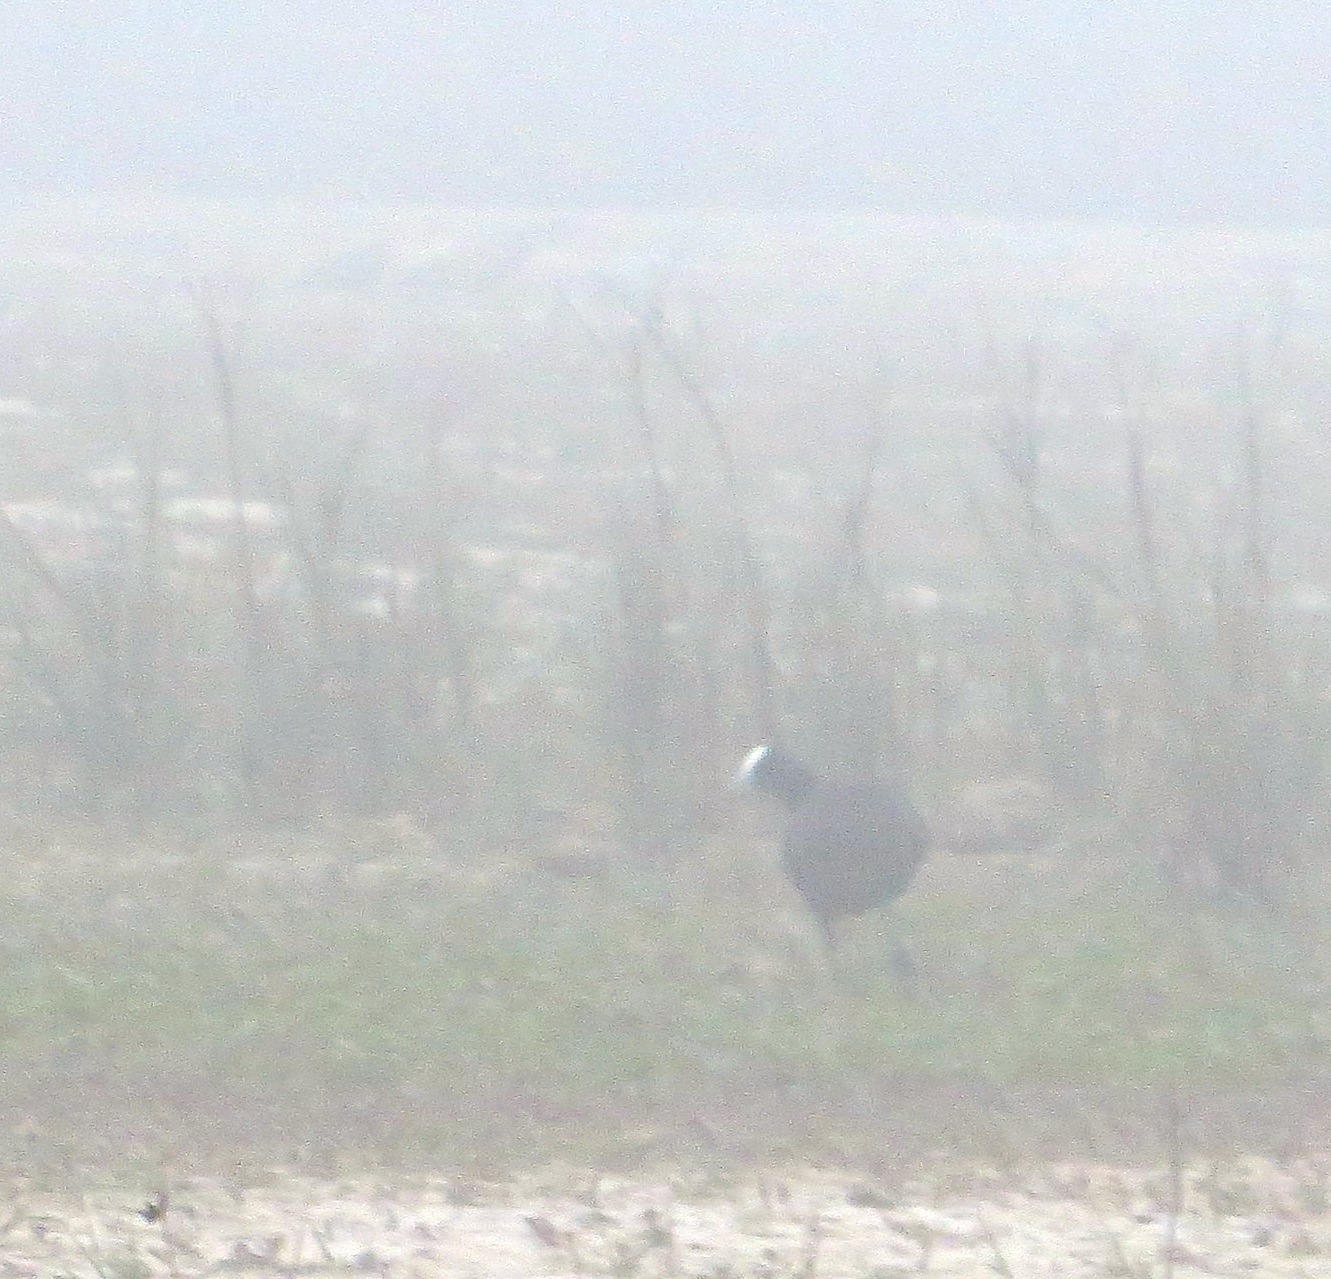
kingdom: Animalia
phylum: Chordata
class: Aves
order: Gruiformes
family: Rallidae
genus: Fulica
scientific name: Fulica cristata
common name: Red-knobbed coot
